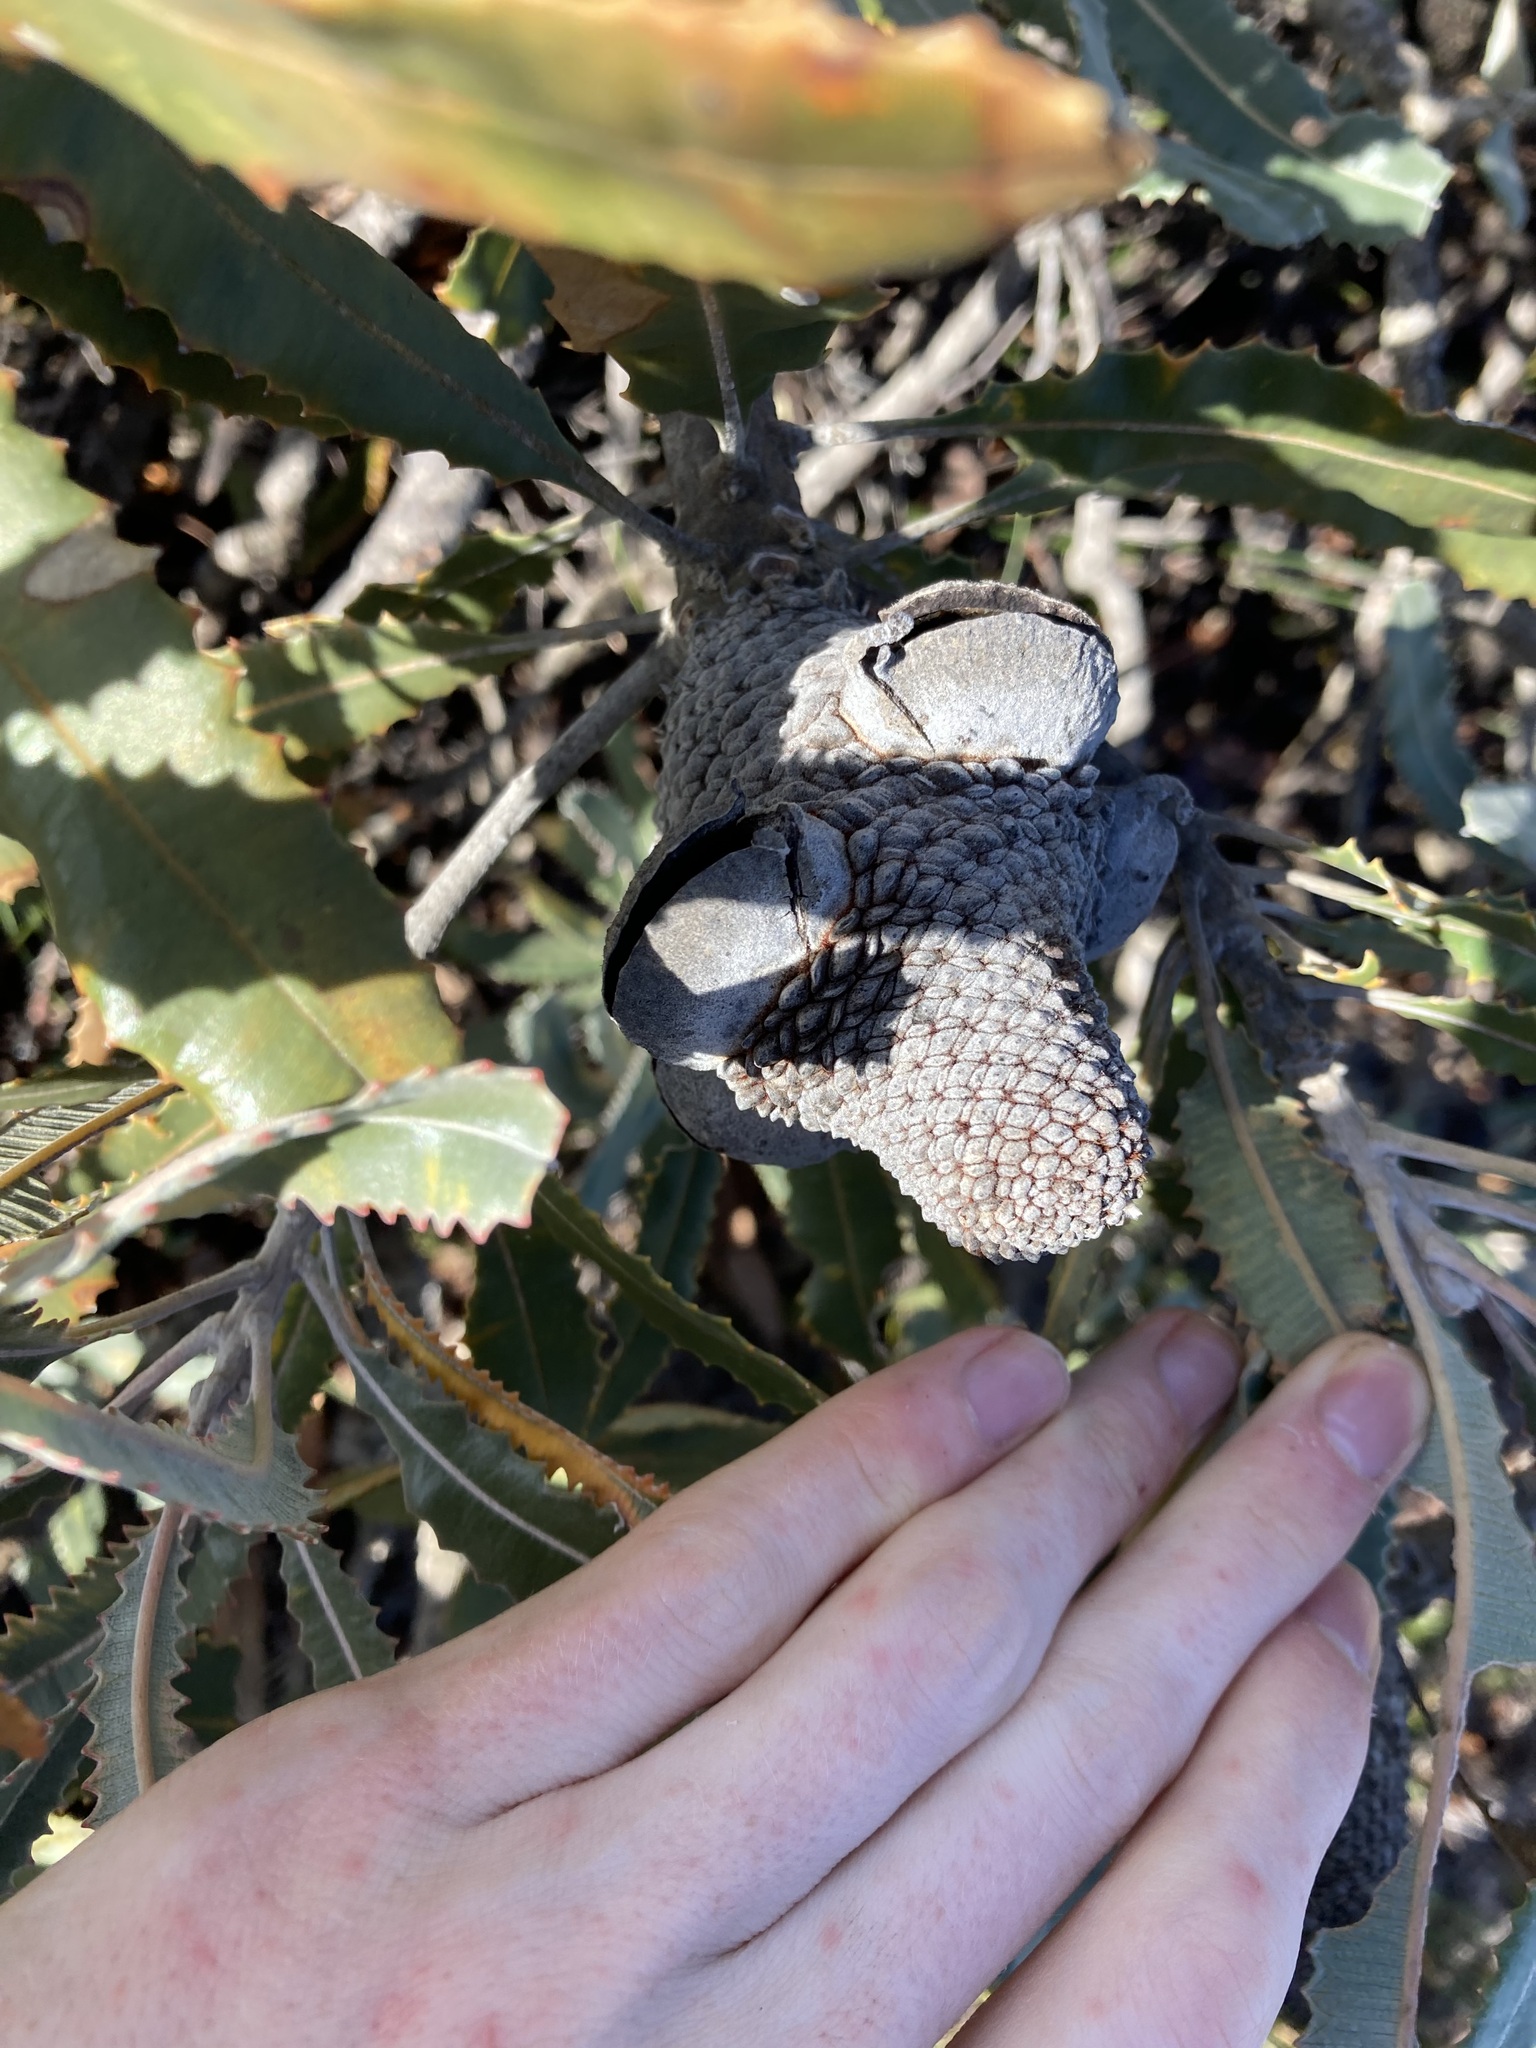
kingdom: Plantae
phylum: Tracheophyta
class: Magnoliopsida
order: Proteales
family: Proteaceae
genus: Banksia
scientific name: Banksia menziesii
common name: Menzie's banksia
